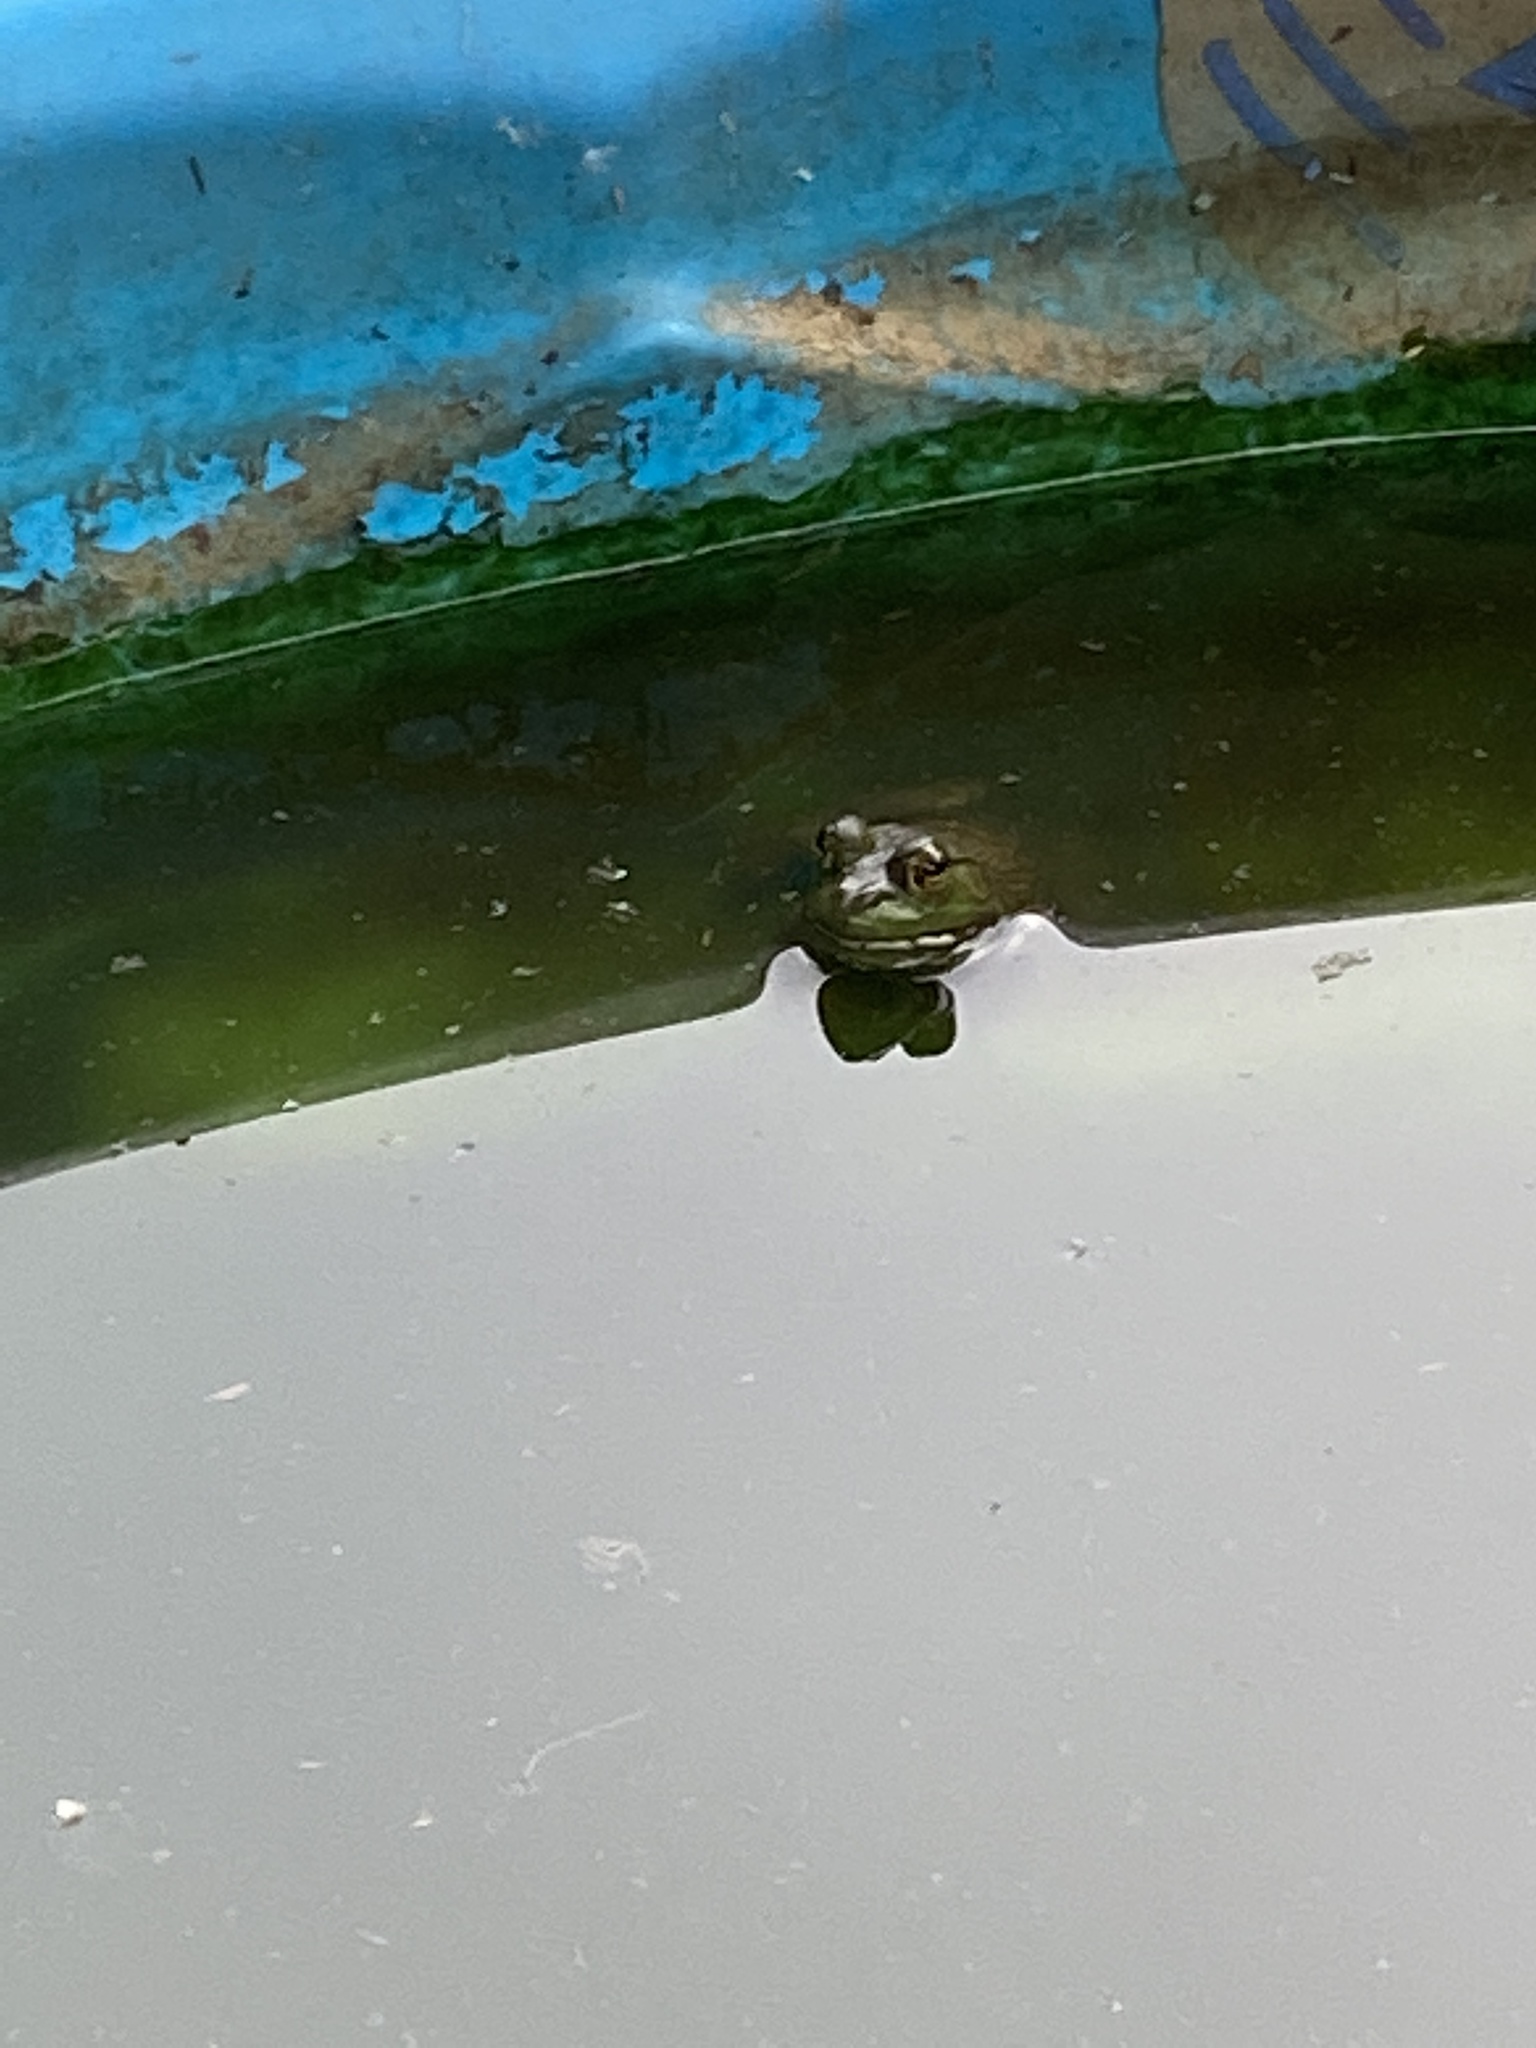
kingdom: Animalia
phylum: Chordata
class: Amphibia
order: Anura
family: Ranidae
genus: Lithobates
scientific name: Lithobates catesbeianus
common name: American bullfrog
